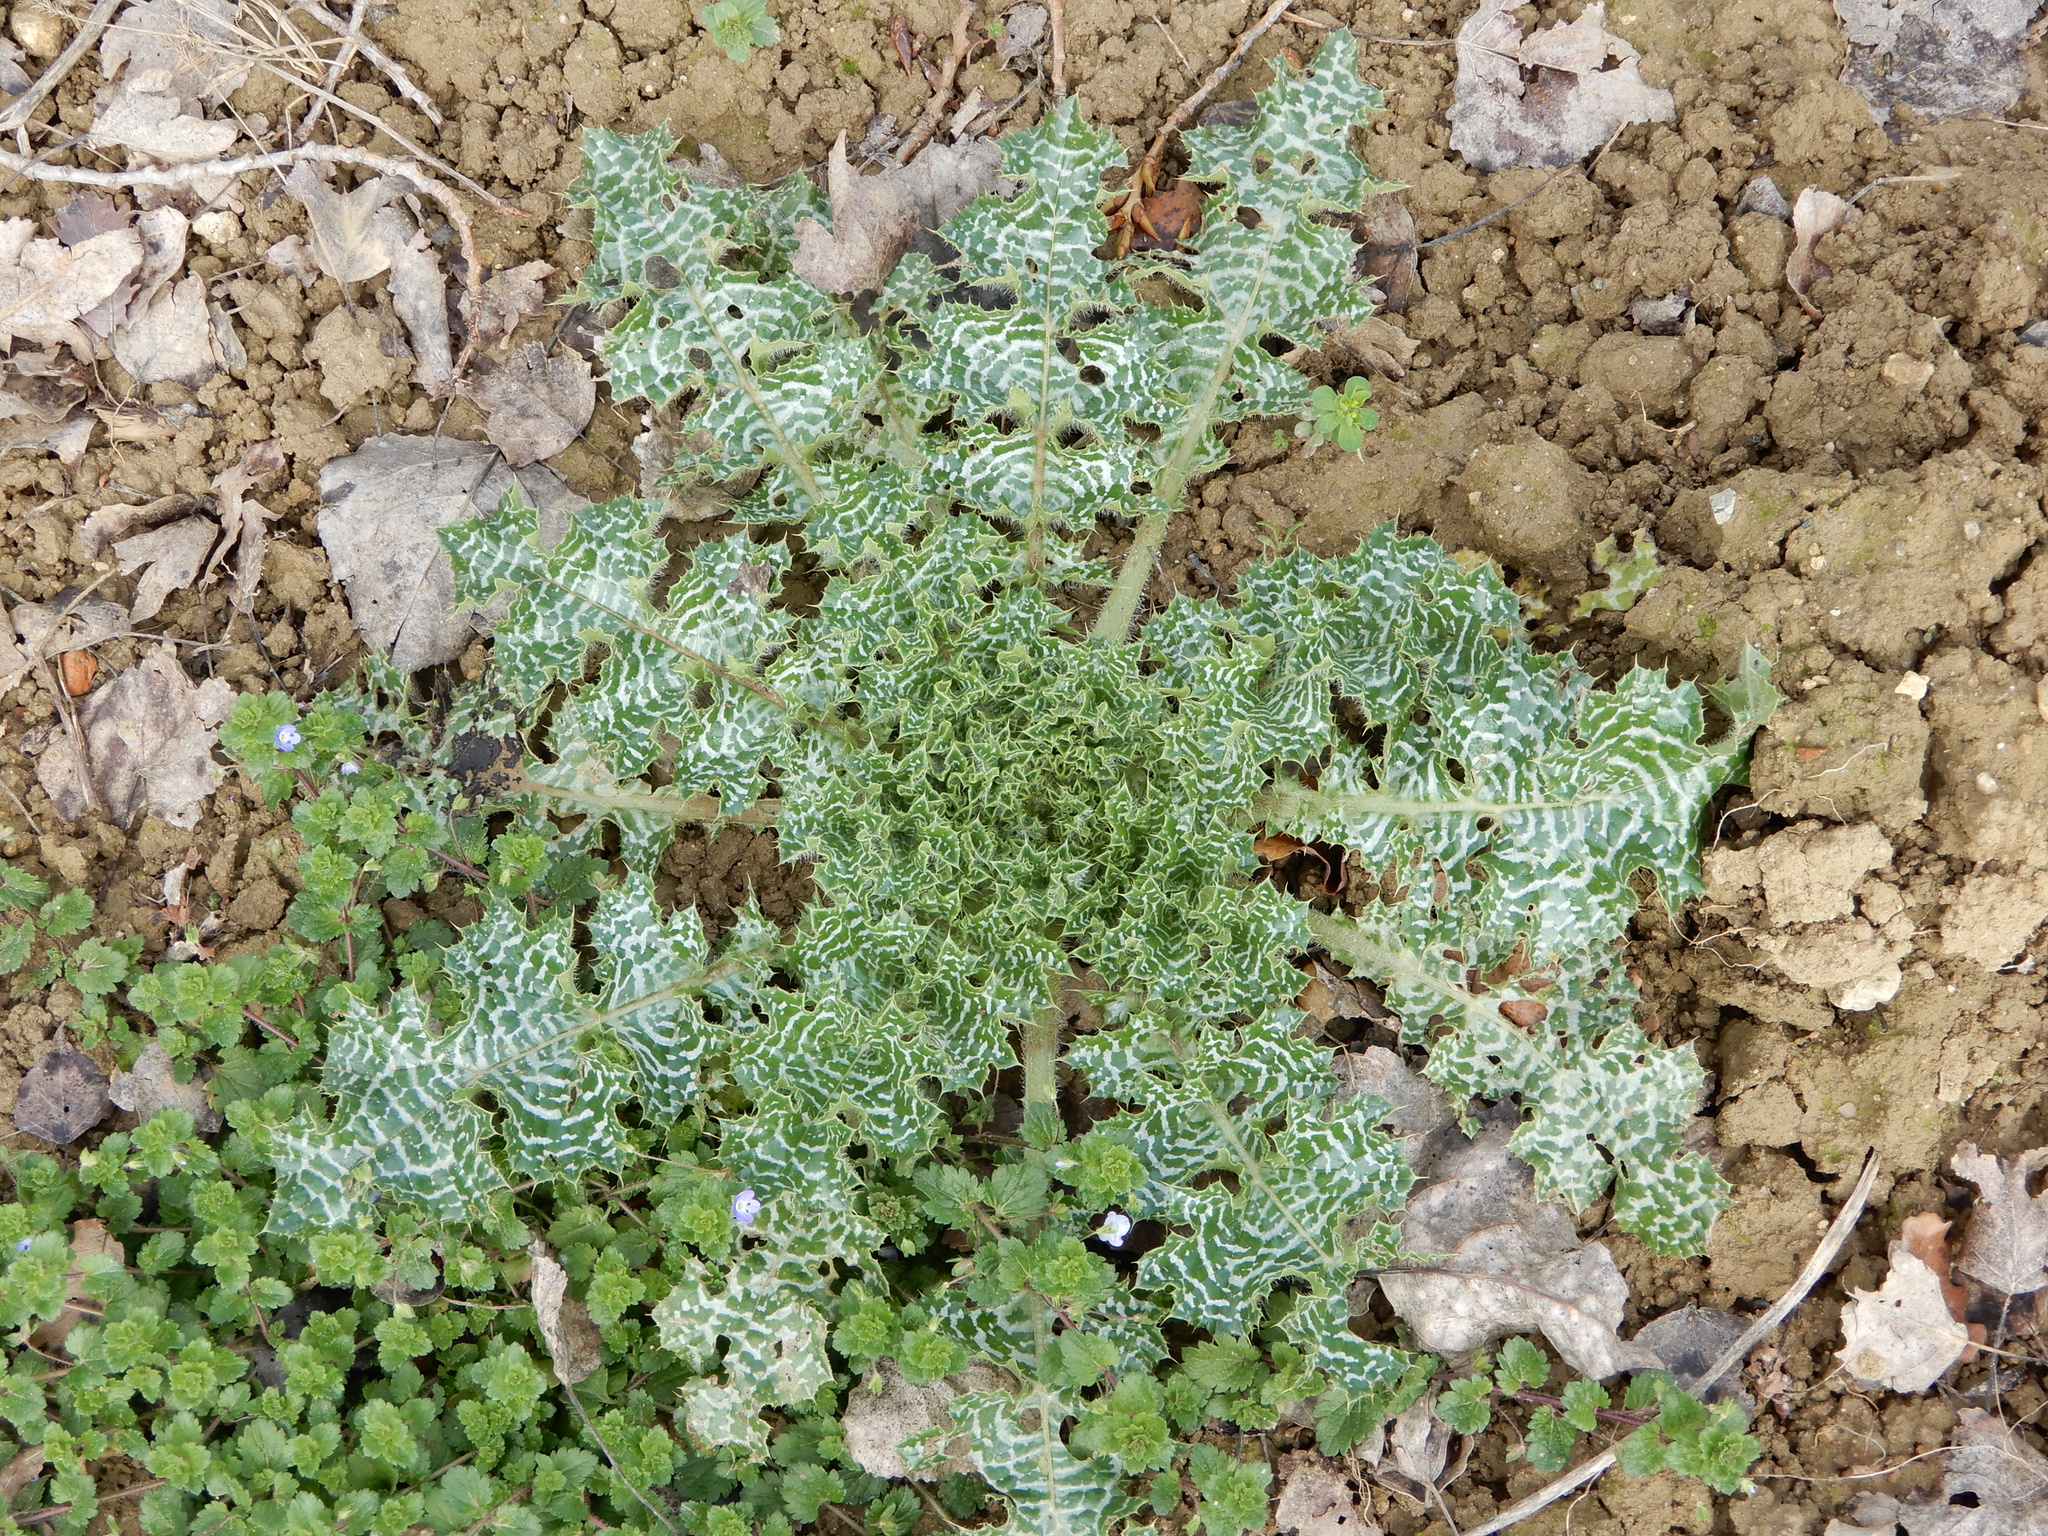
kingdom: Plantae
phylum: Tracheophyta
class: Magnoliopsida
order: Asterales
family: Asteraceae
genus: Silybum
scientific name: Silybum marianum
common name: Milk thistle
